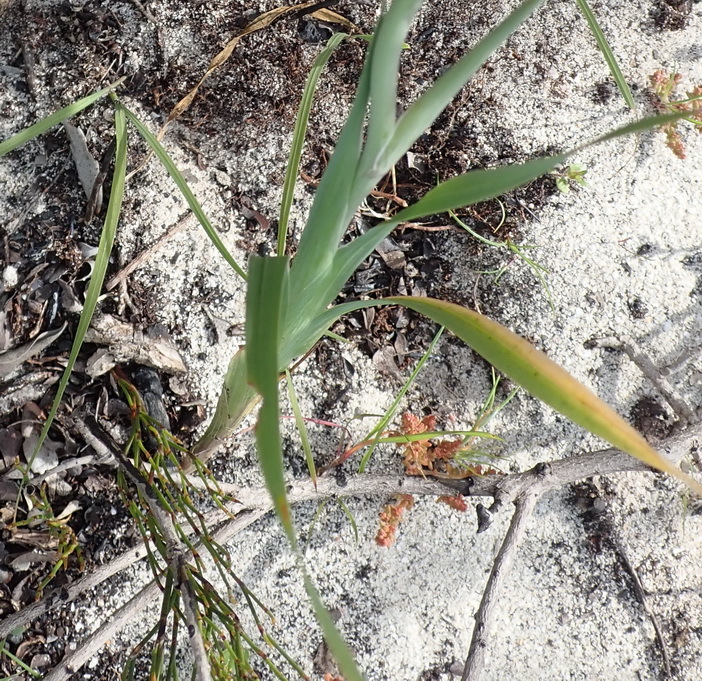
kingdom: Plantae
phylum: Tracheophyta
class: Liliopsida
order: Asparagales
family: Iridaceae
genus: Gladiolus
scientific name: Gladiolus cunonius
